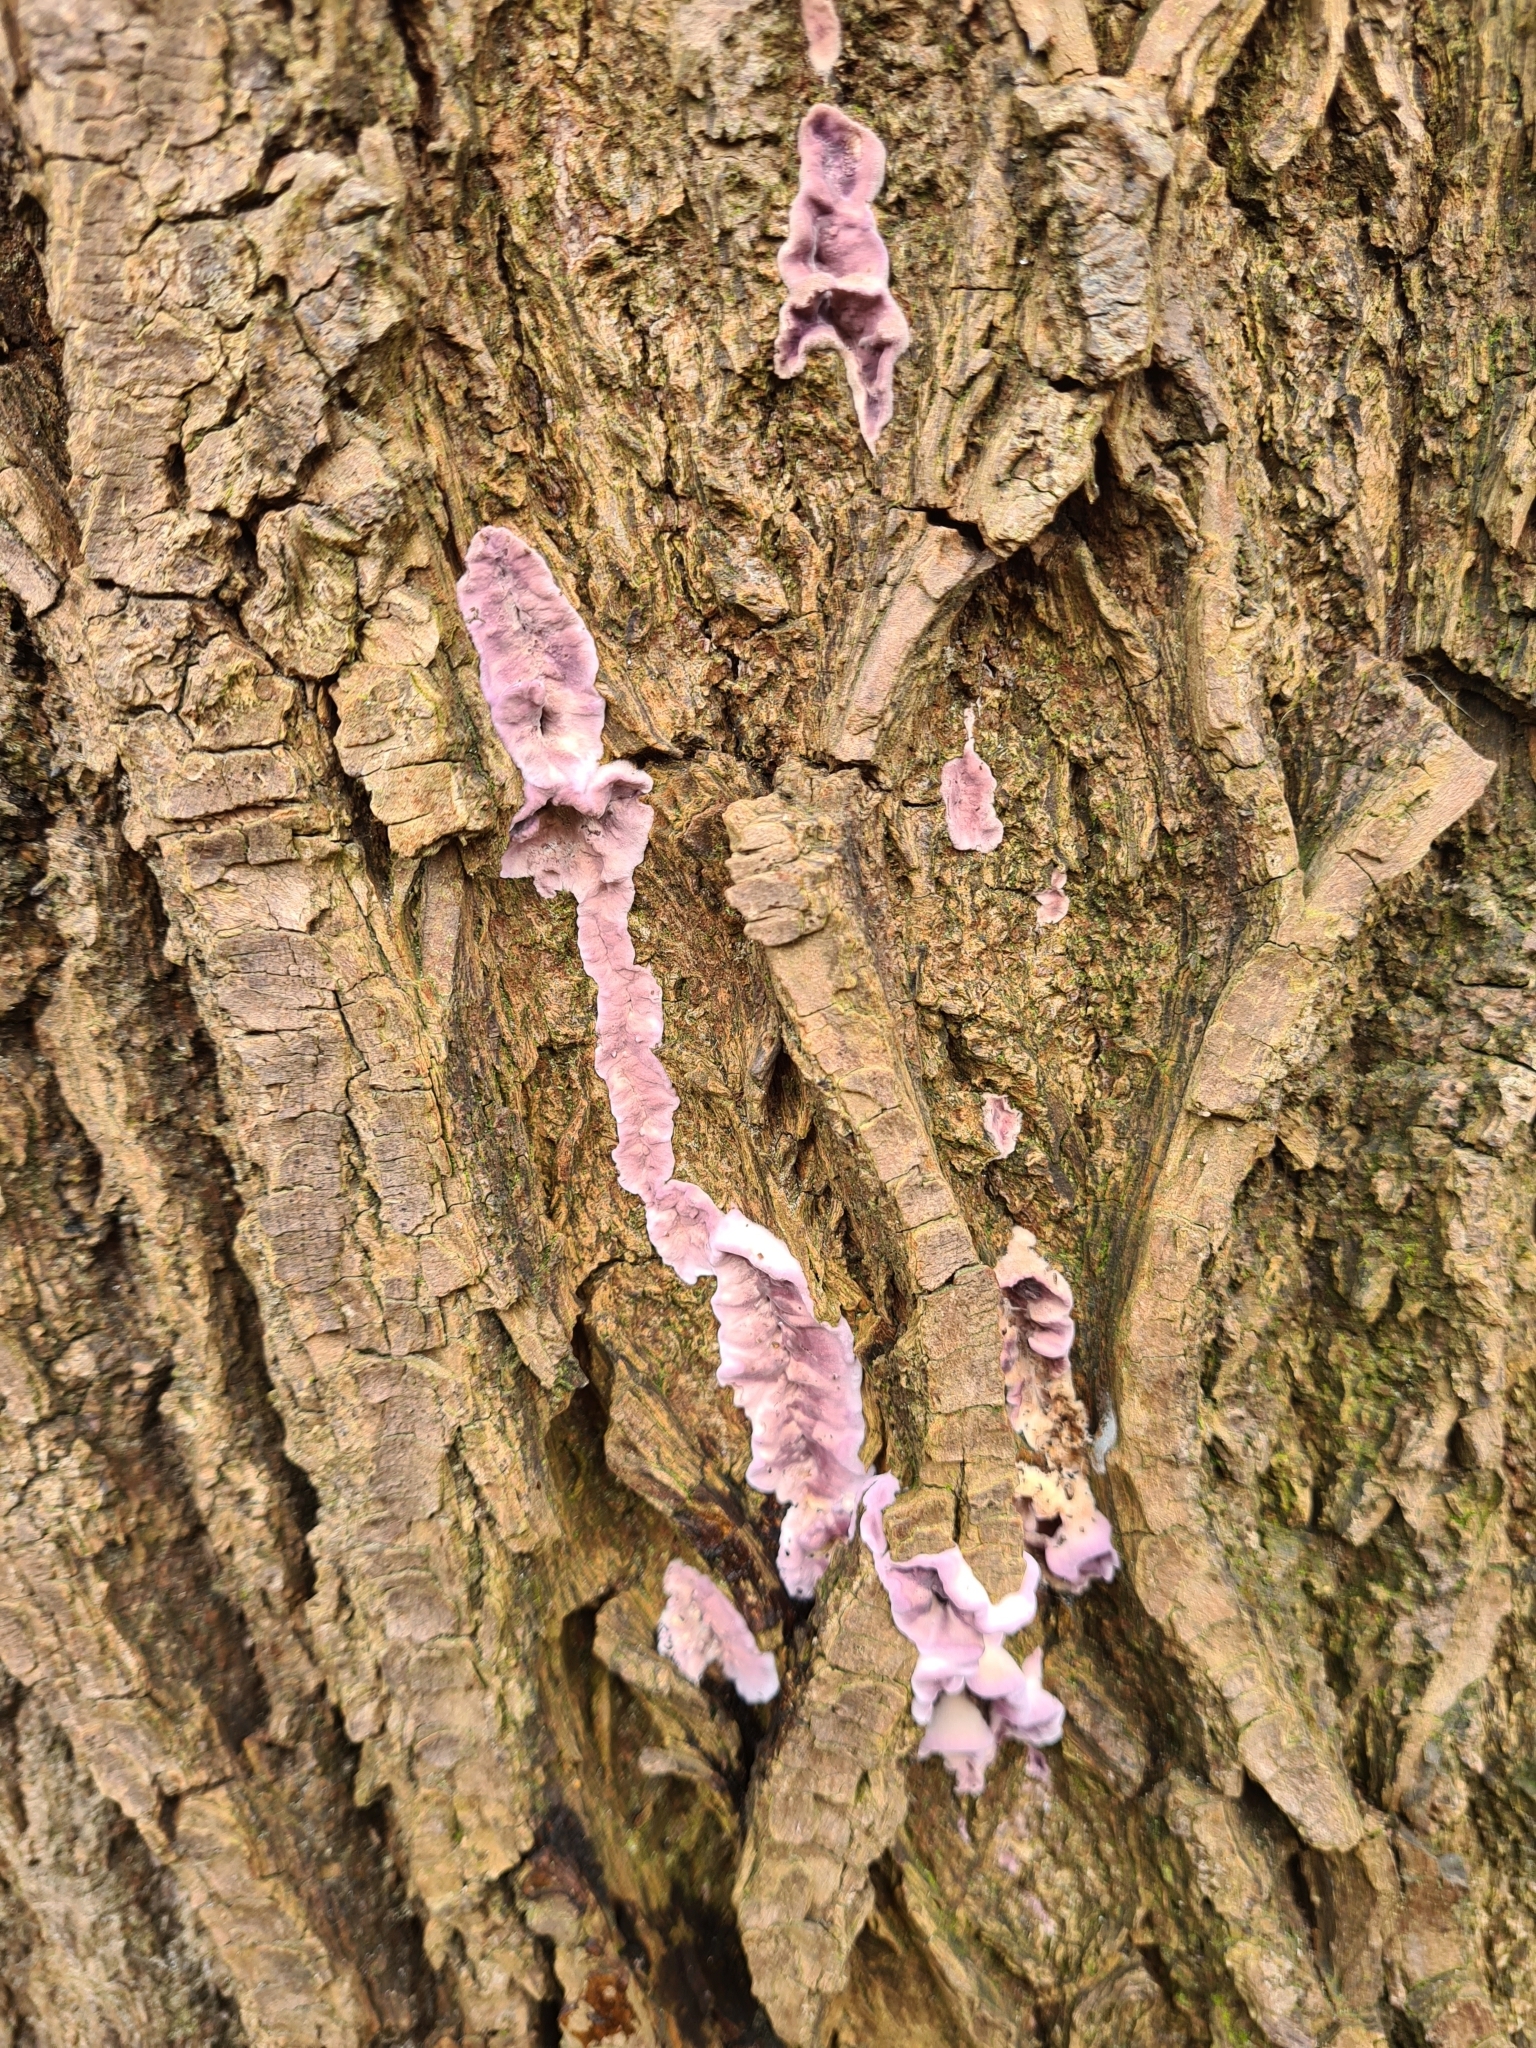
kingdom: Fungi
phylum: Basidiomycota
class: Agaricomycetes
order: Agaricales
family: Cyphellaceae
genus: Chondrostereum
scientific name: Chondrostereum purpureum
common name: Silver leaf disease
